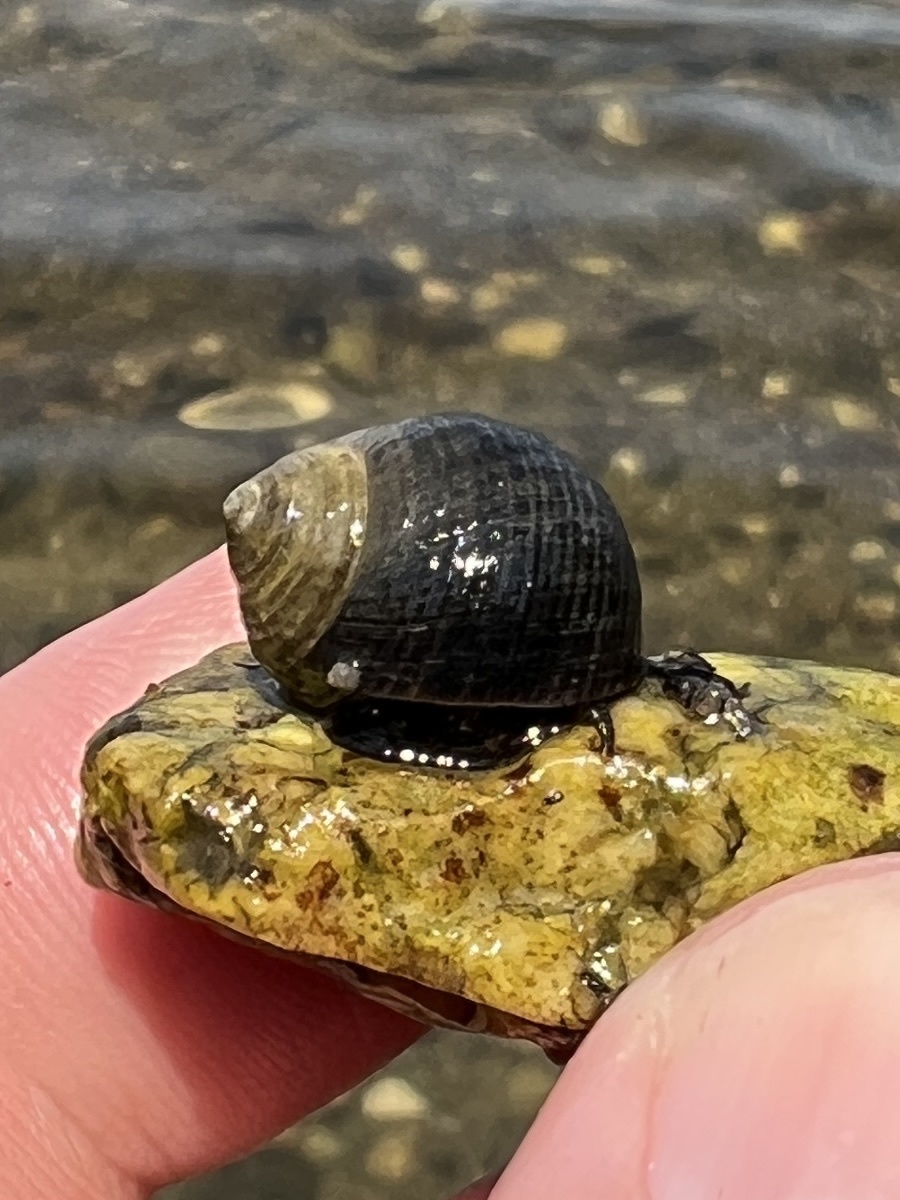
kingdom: Animalia
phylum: Mollusca
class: Gastropoda
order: Littorinimorpha
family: Littorinidae
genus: Littorina
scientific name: Littorina littorea
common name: Common periwinkle
